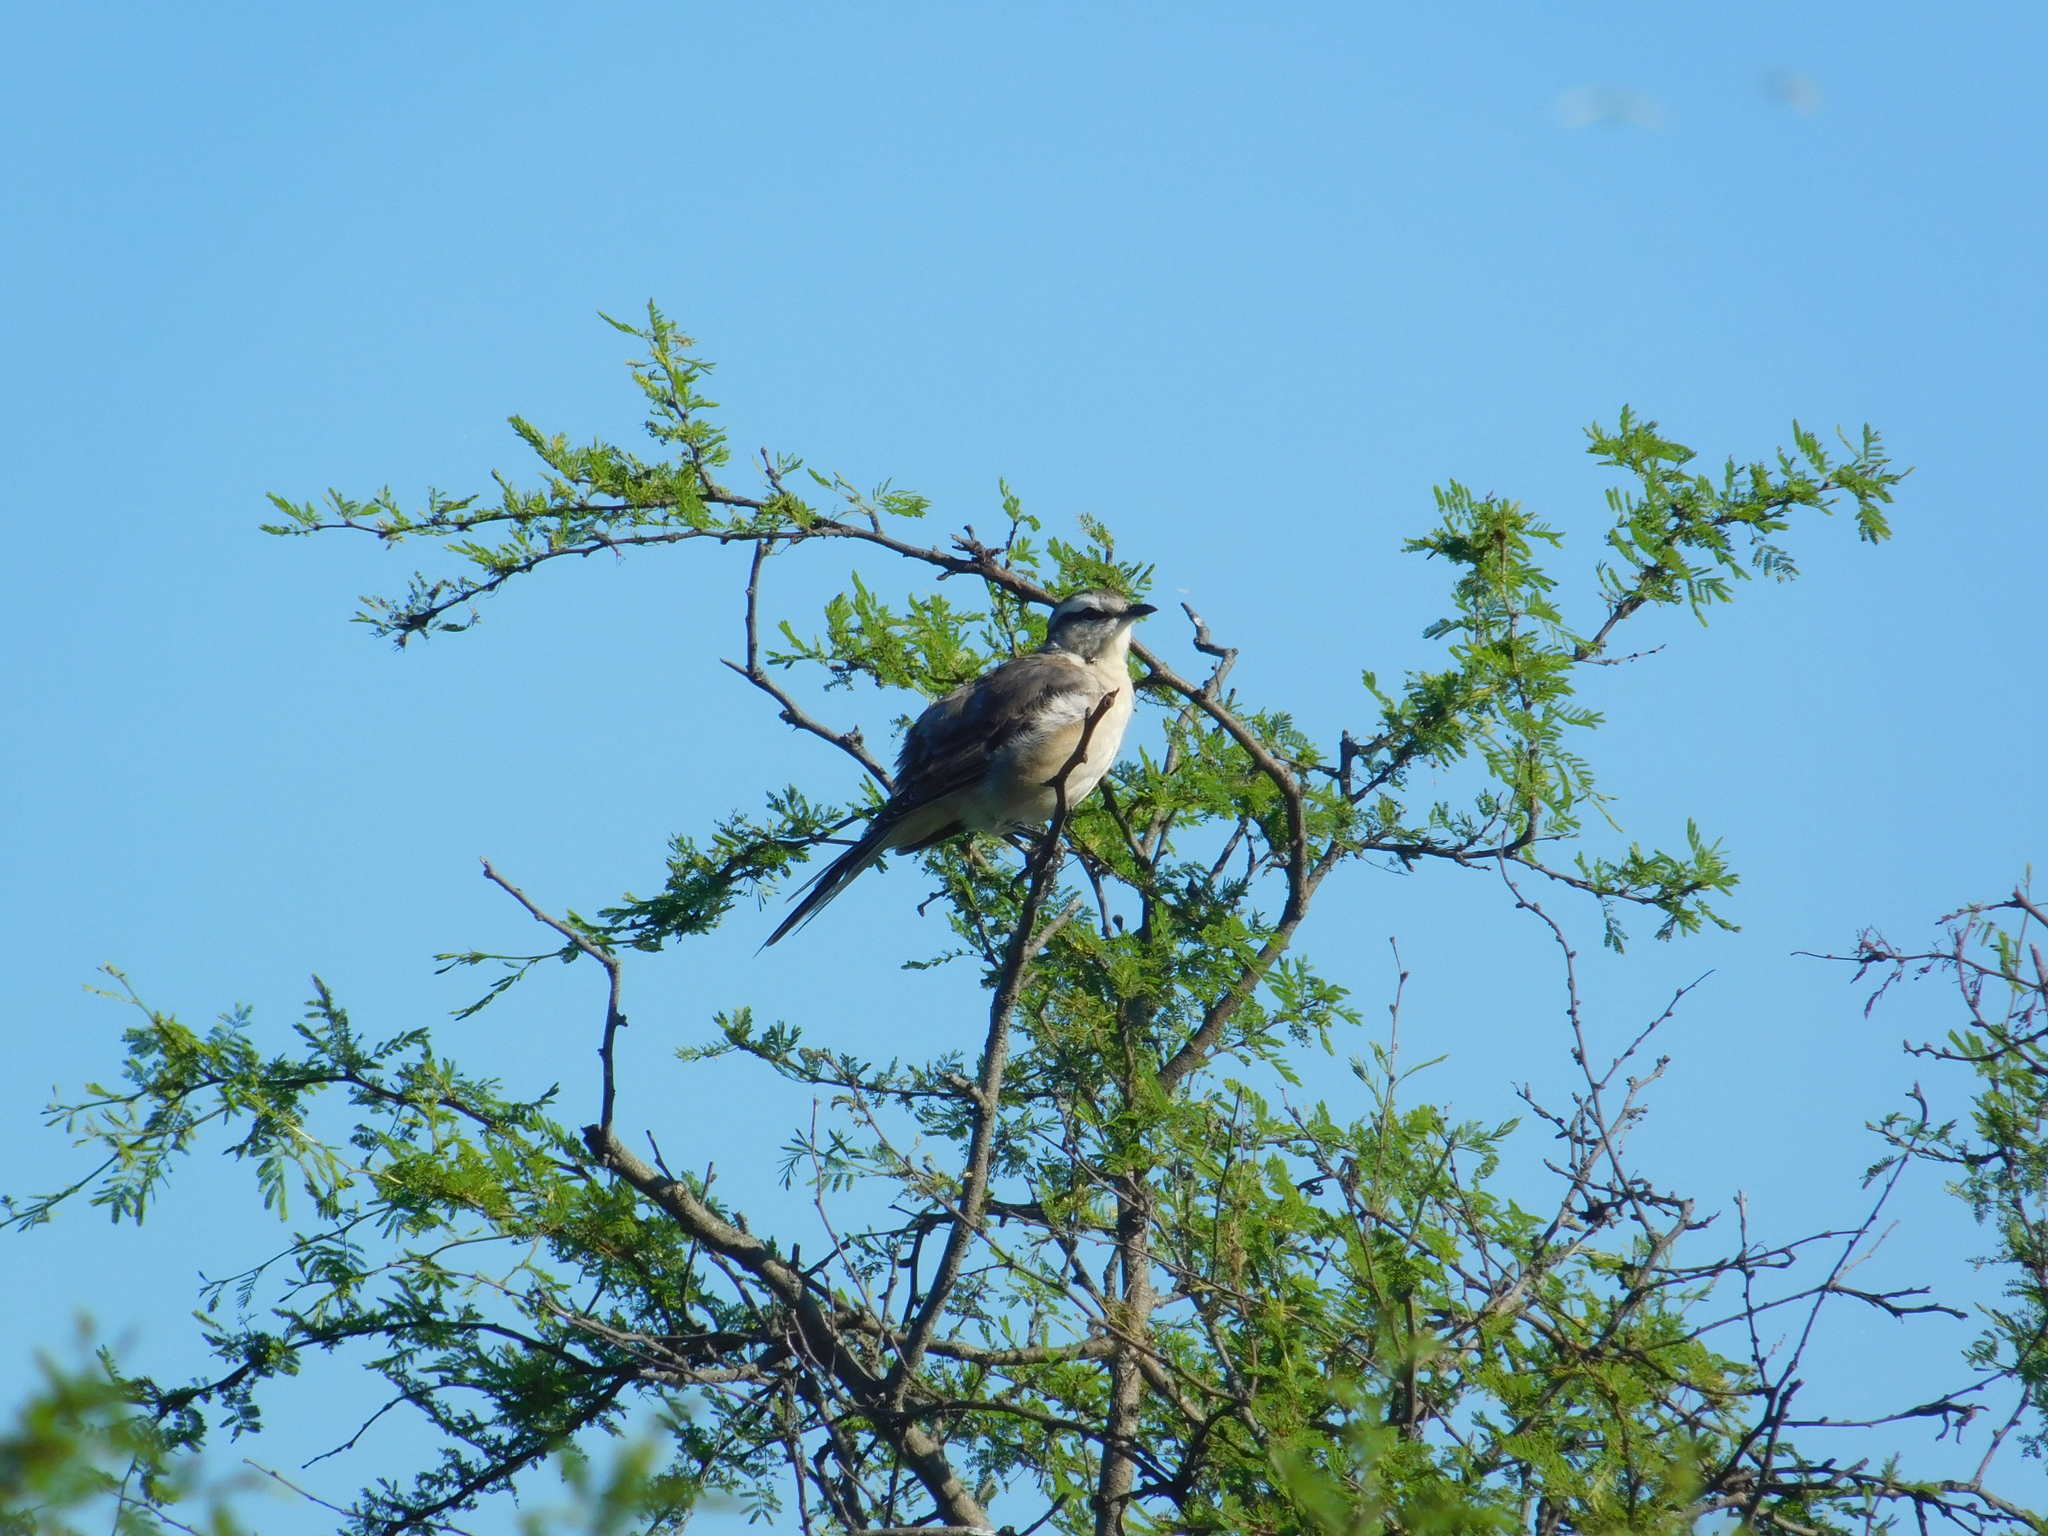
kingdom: Animalia
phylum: Chordata
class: Aves
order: Passeriformes
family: Mimidae
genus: Mimus
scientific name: Mimus saturninus
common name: Chalk-browed mockingbird
